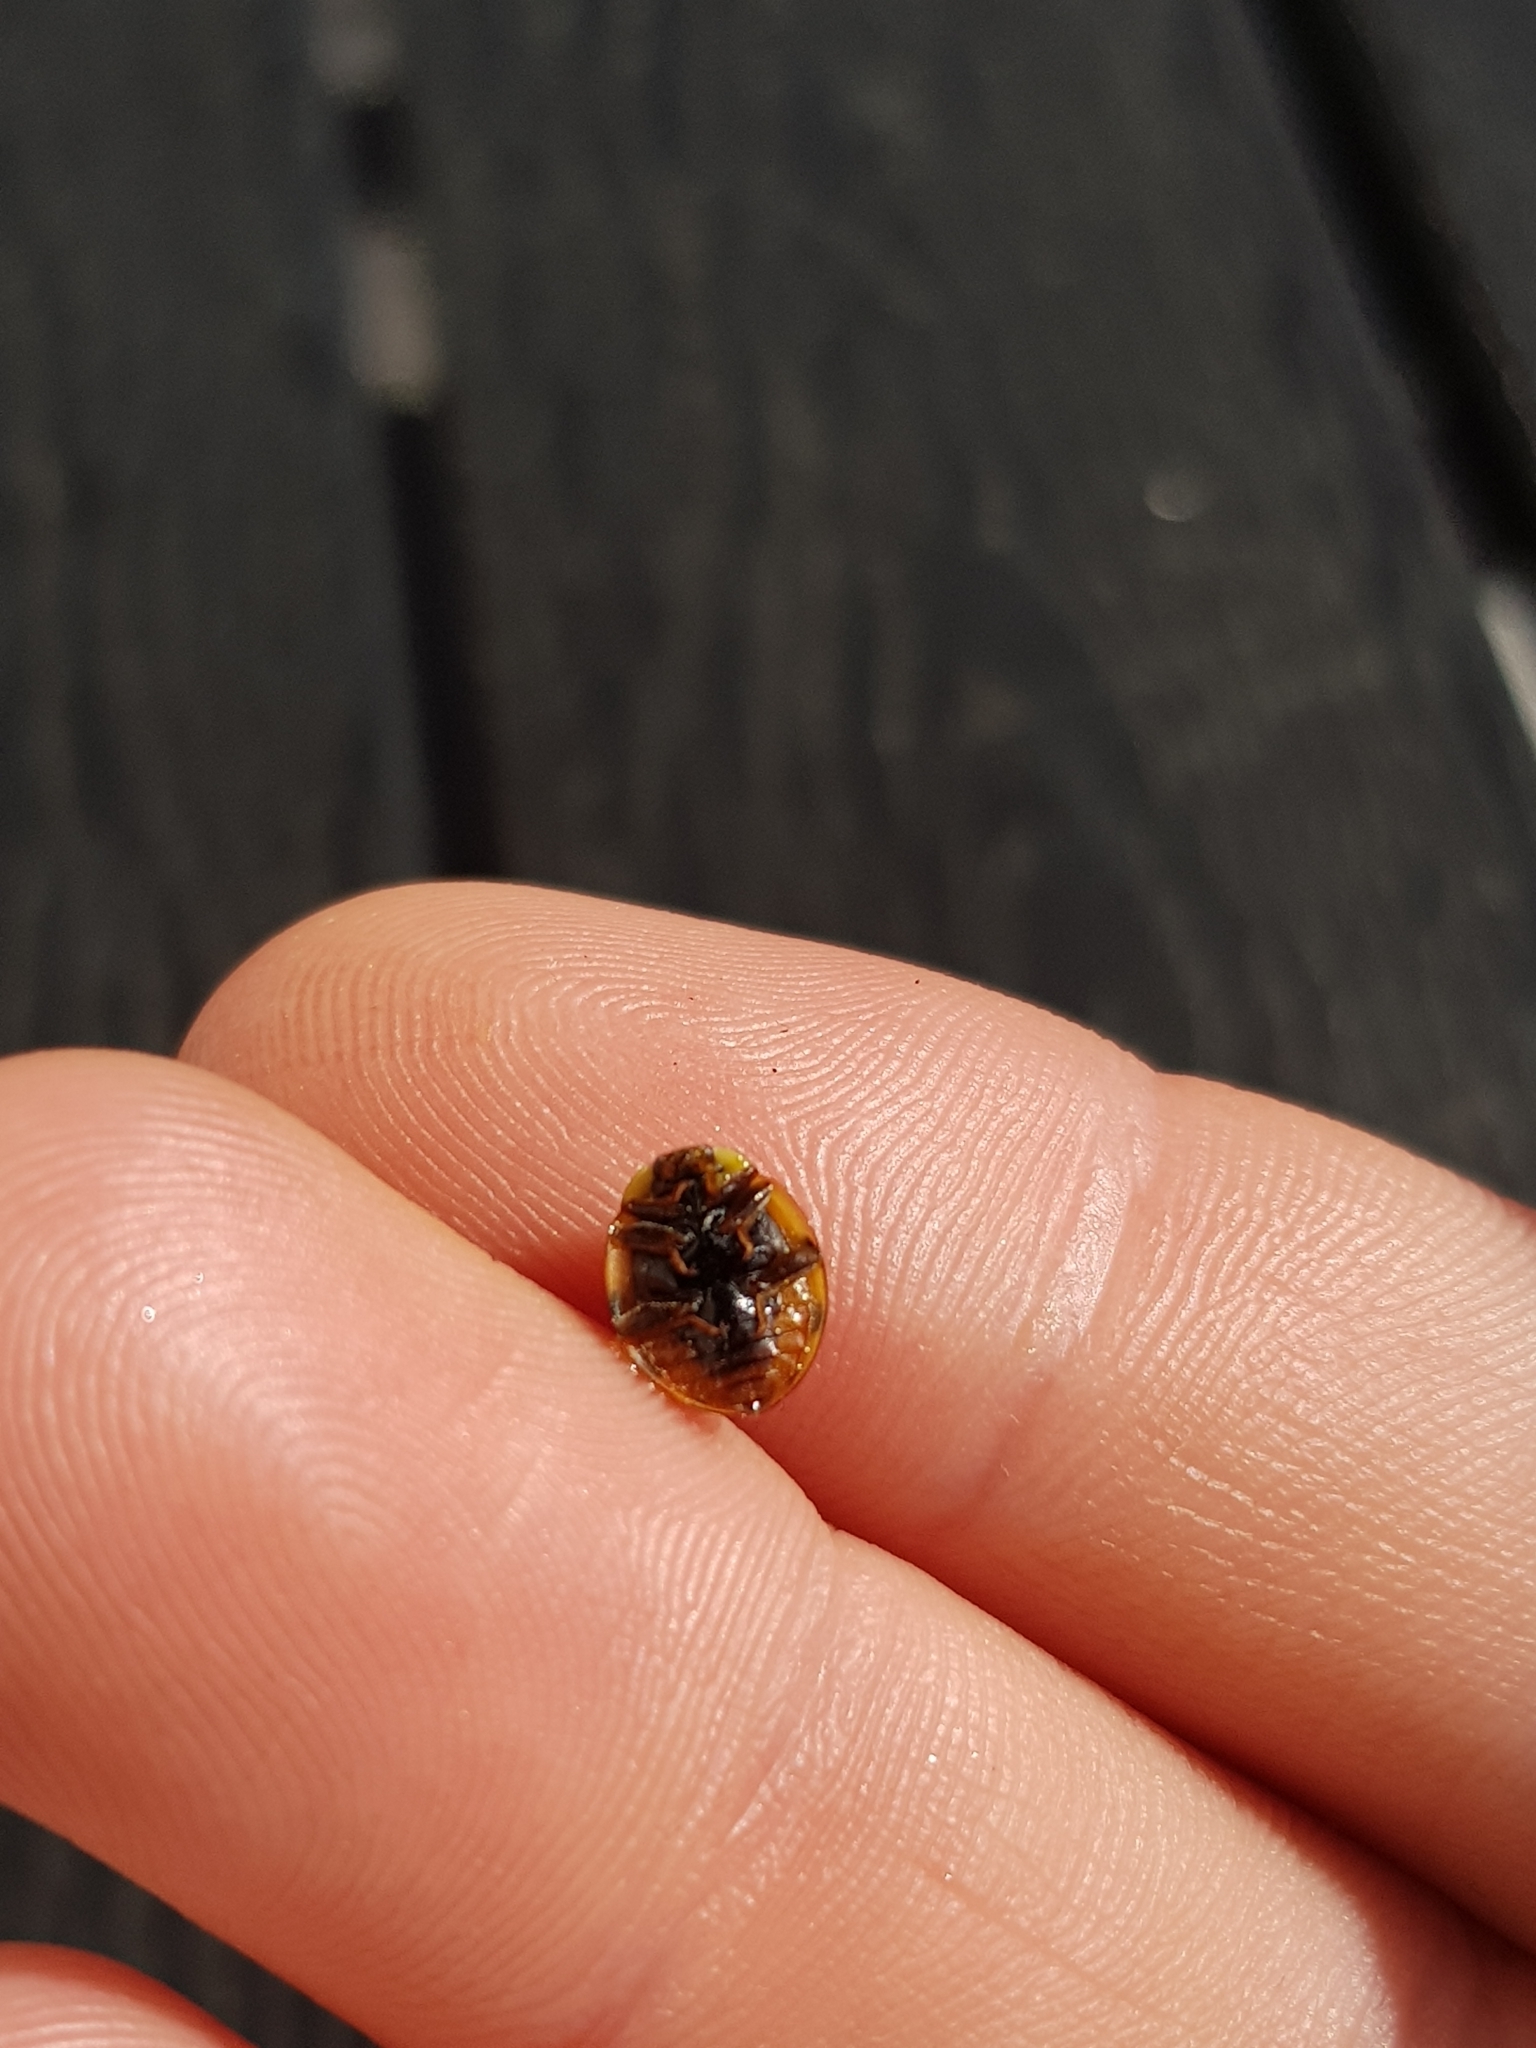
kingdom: Animalia
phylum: Arthropoda
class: Insecta
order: Coleoptera
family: Coccinellidae
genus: Harmonia
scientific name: Harmonia axyridis
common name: Harlequin ladybird
